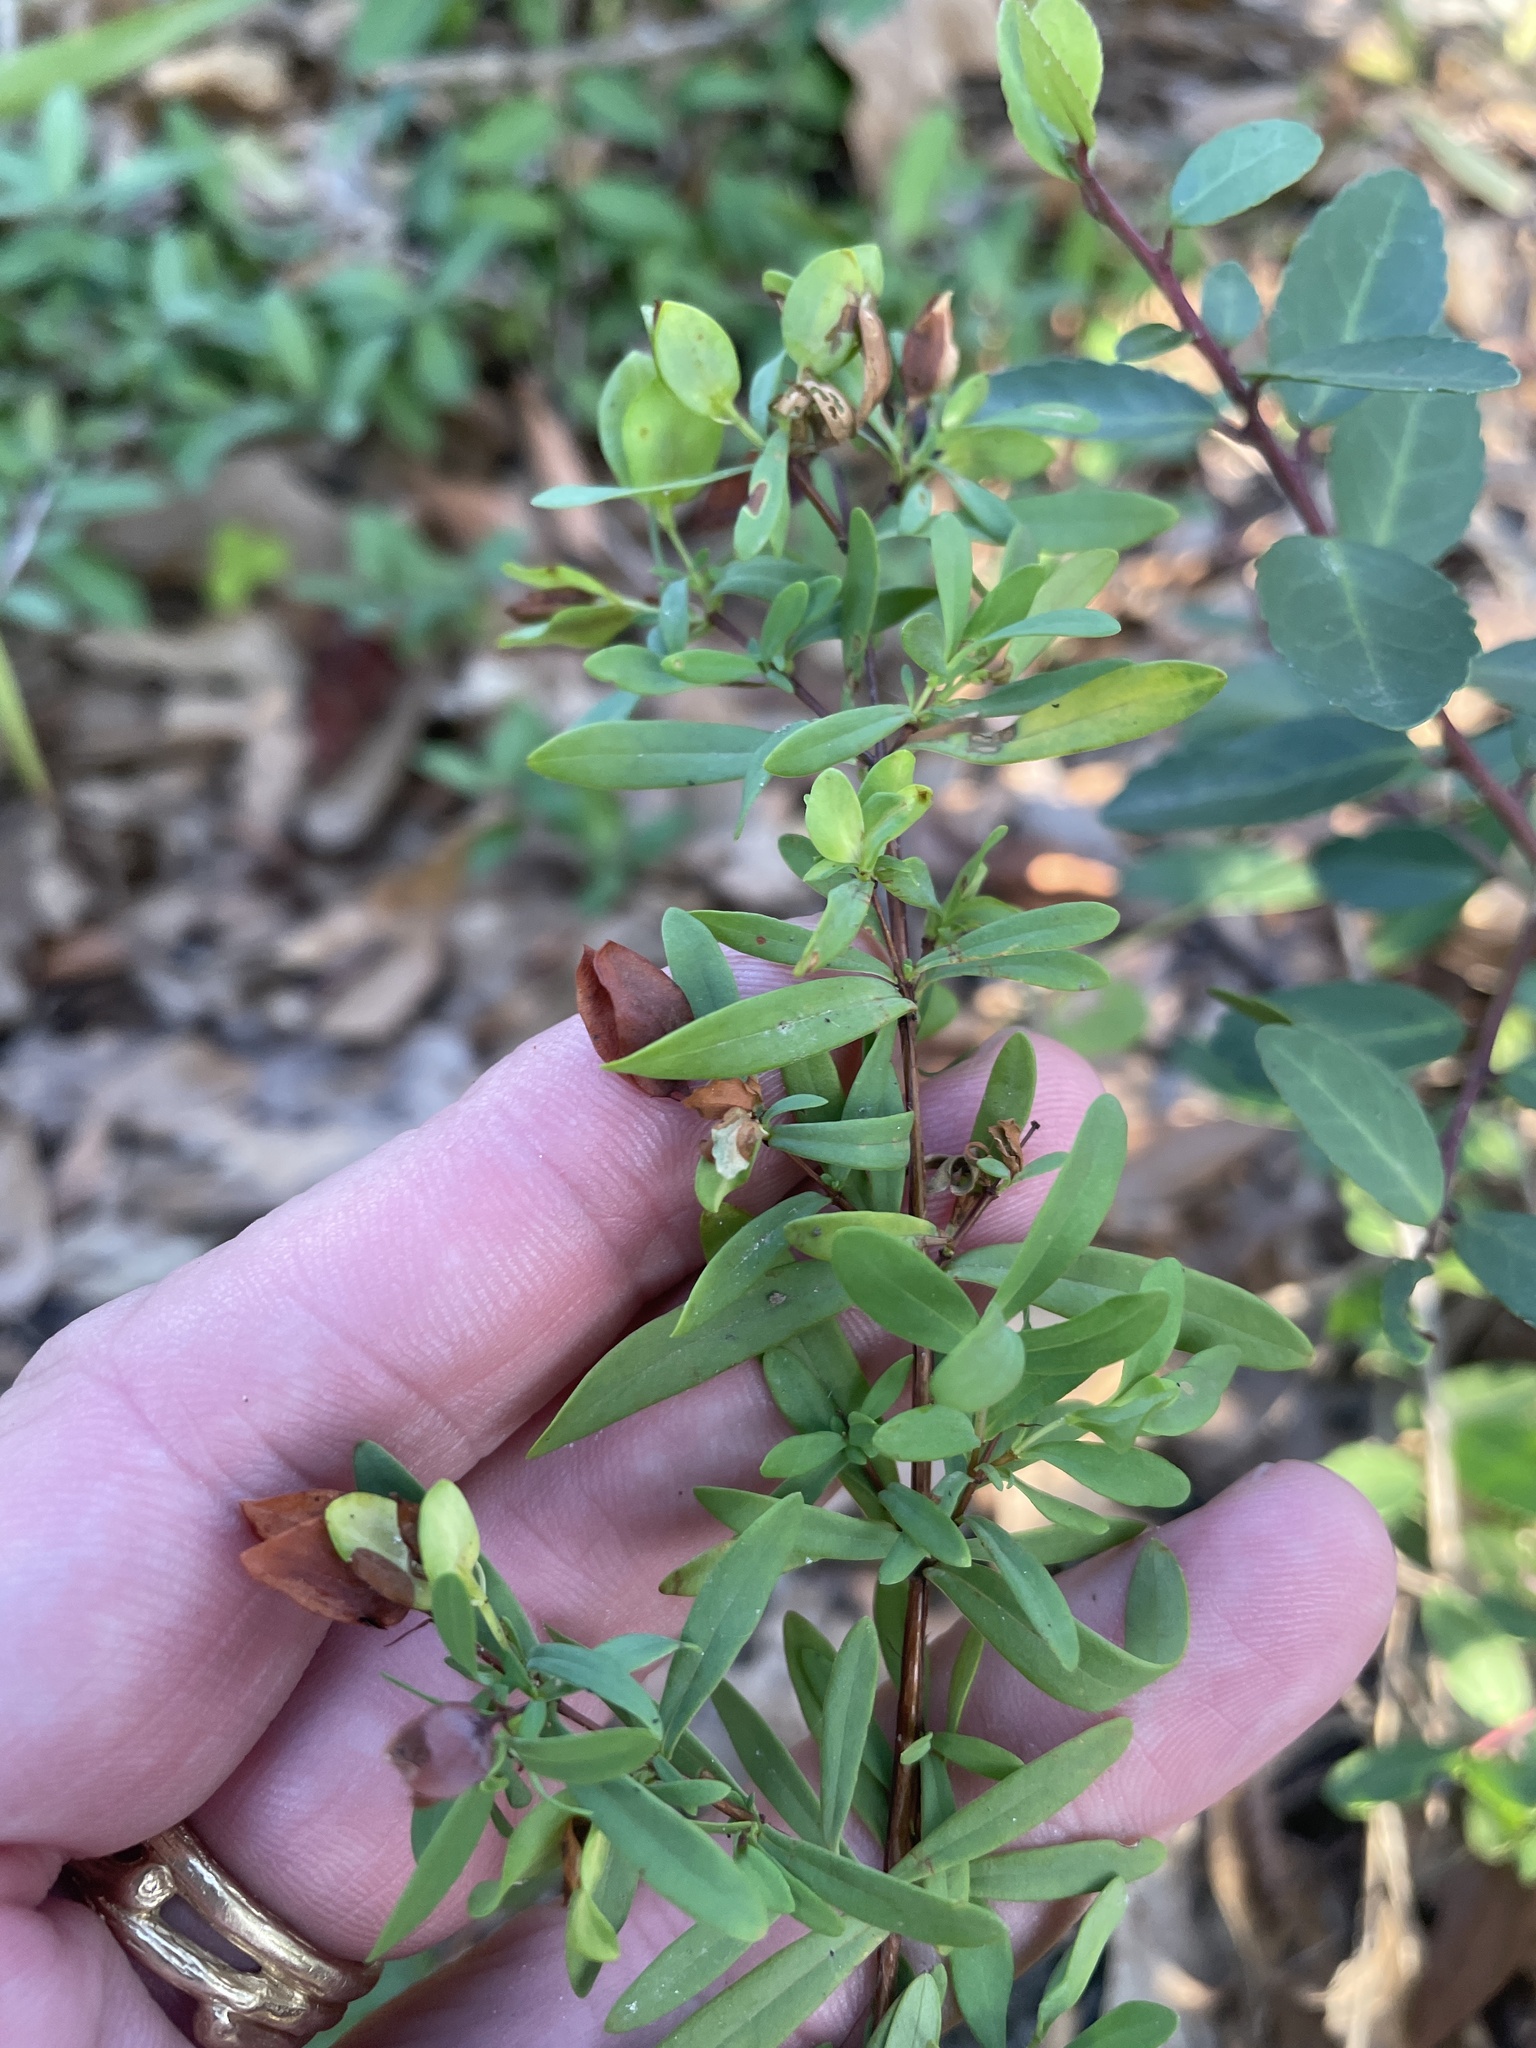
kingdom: Plantae
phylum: Tracheophyta
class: Magnoliopsida
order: Malpighiales
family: Hypericaceae
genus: Hypericum
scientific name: Hypericum hypericoides
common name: St. andrew's cross
